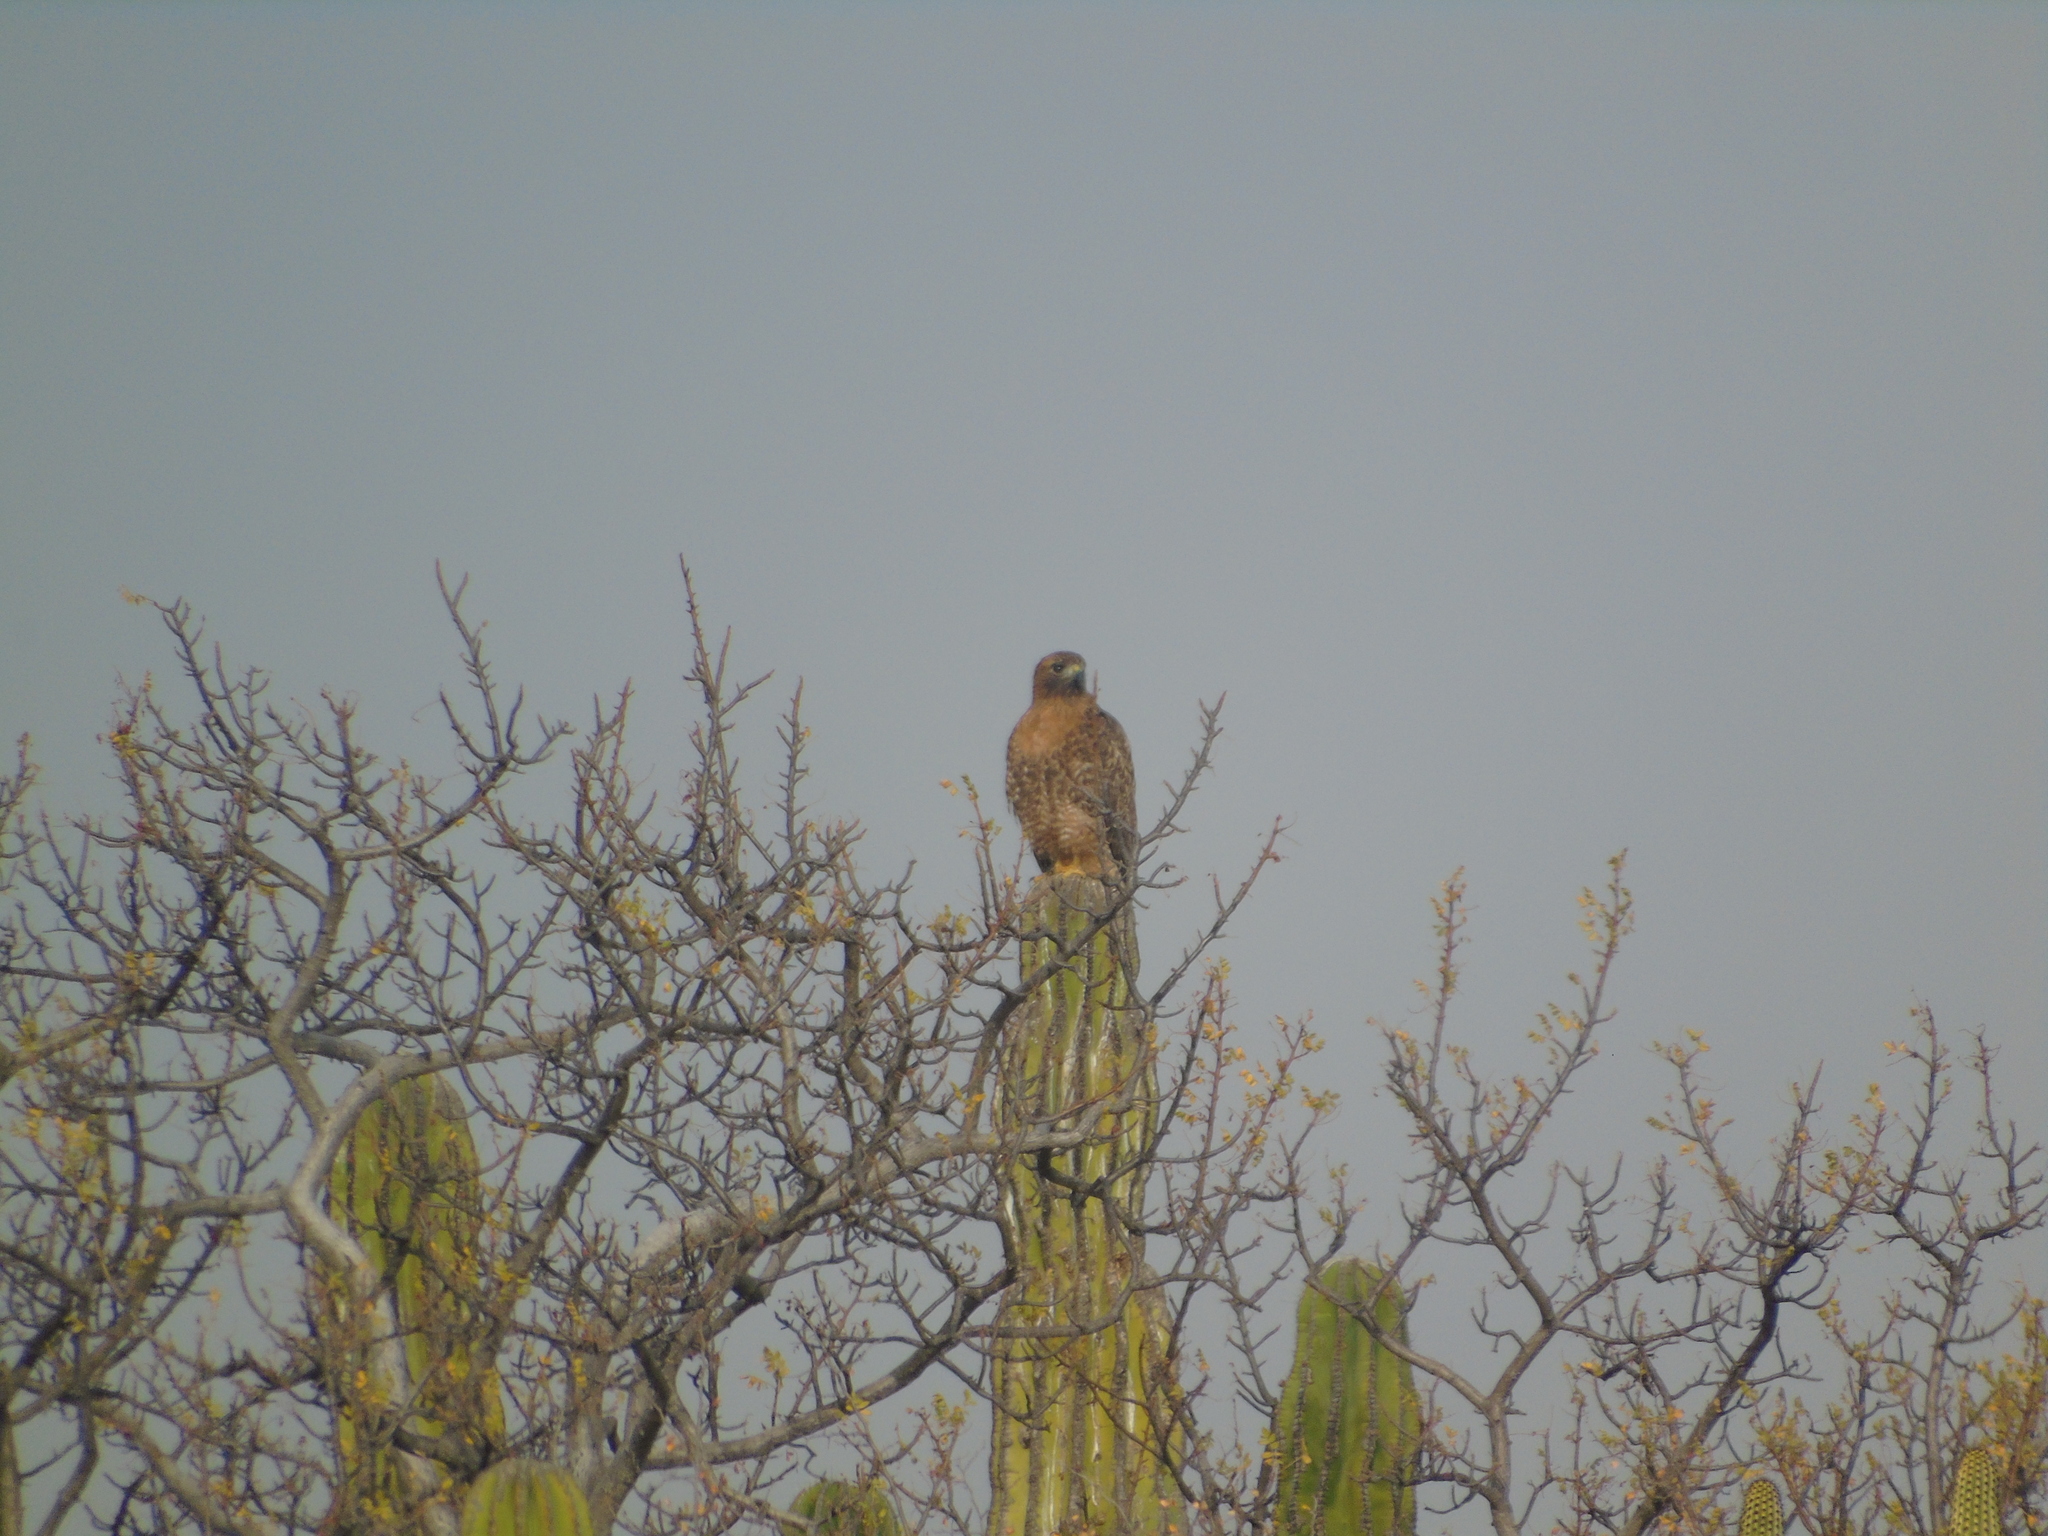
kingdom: Animalia
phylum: Chordata
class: Aves
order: Accipitriformes
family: Accipitridae
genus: Buteo
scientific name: Buteo jamaicensis
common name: Red-tailed hawk
